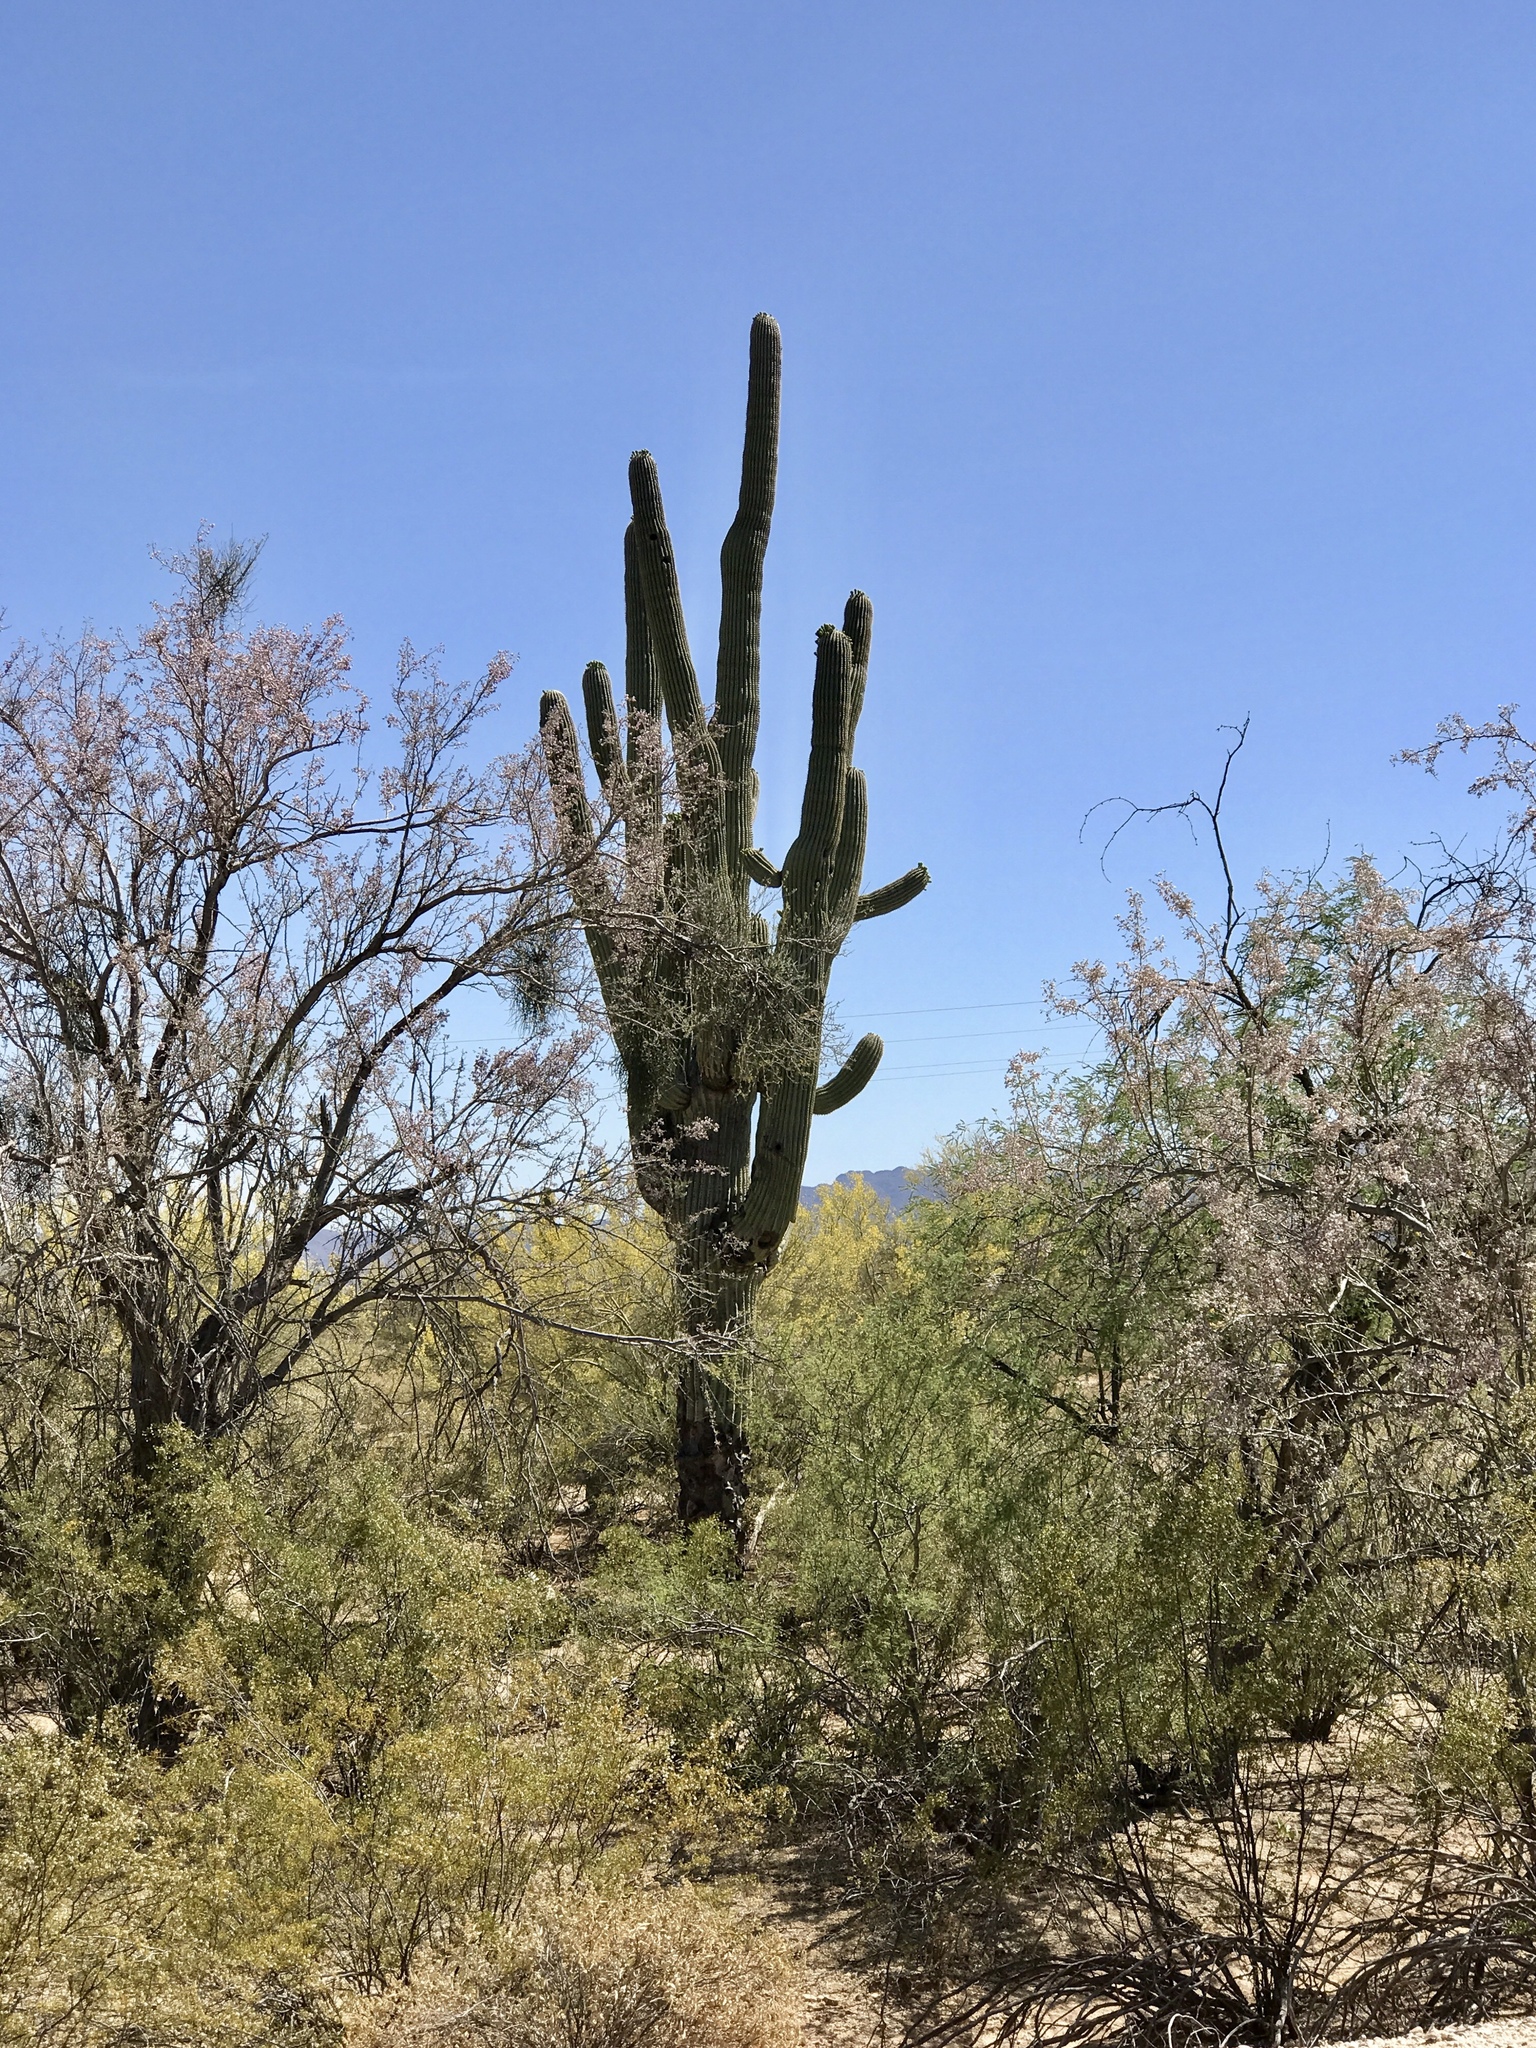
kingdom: Plantae
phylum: Tracheophyta
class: Magnoliopsida
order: Caryophyllales
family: Cactaceae
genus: Carnegiea
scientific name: Carnegiea gigantea
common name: Saguaro
